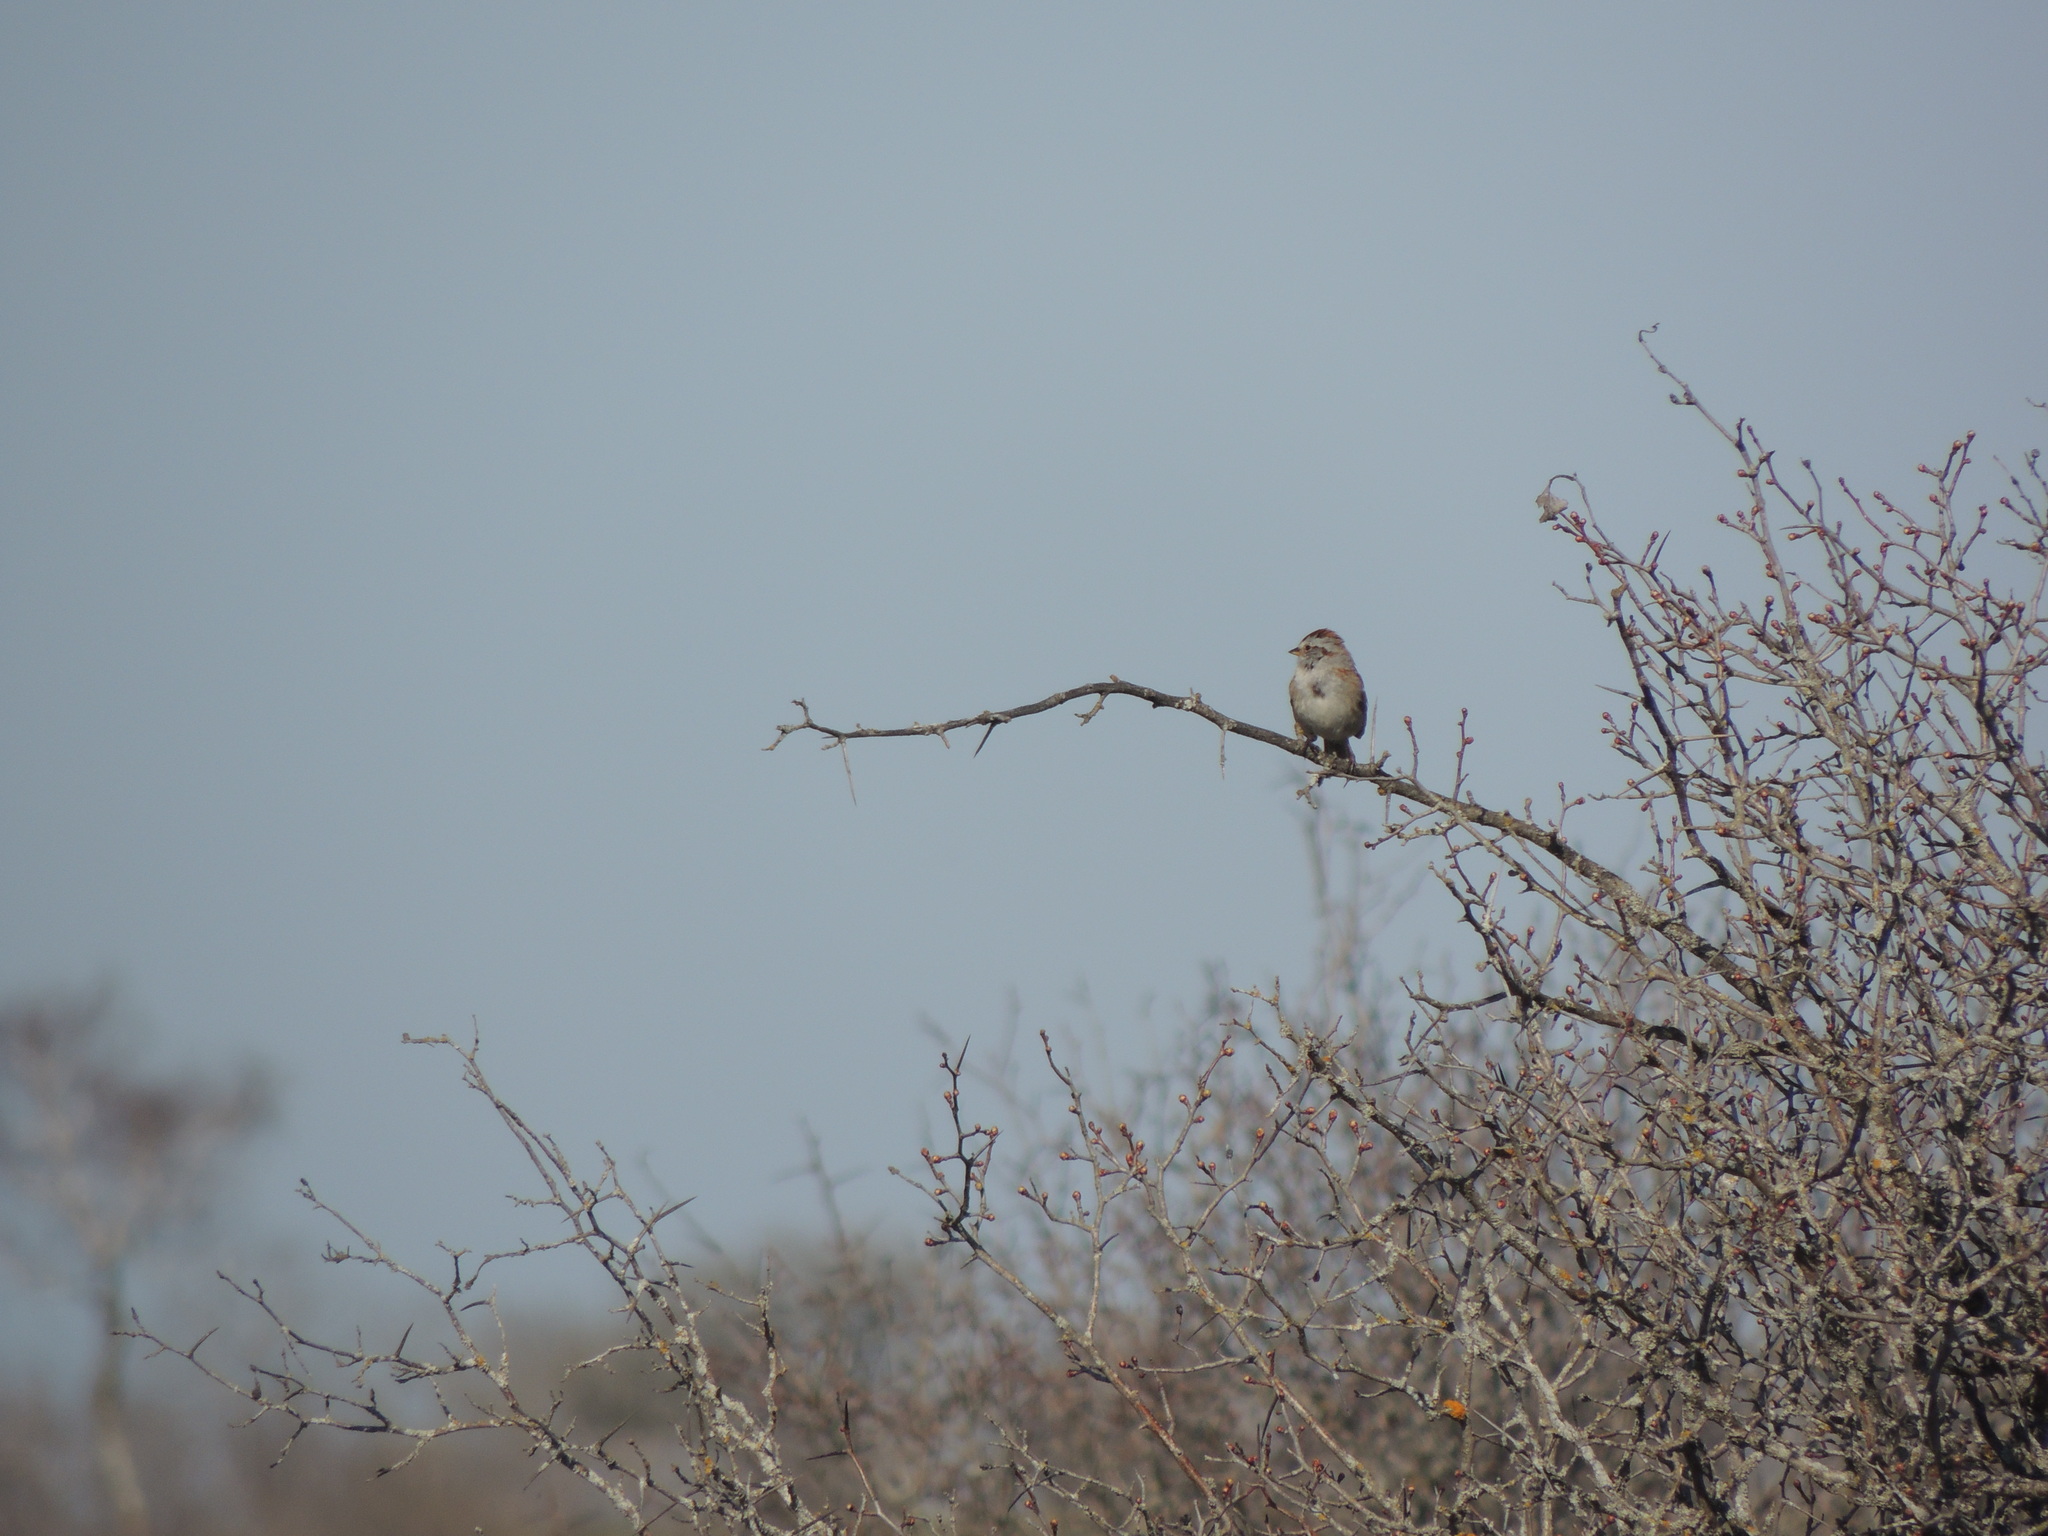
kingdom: Animalia
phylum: Chordata
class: Aves
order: Passeriformes
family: Passerellidae
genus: Spizelloides
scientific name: Spizelloides arborea
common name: American tree sparrow
